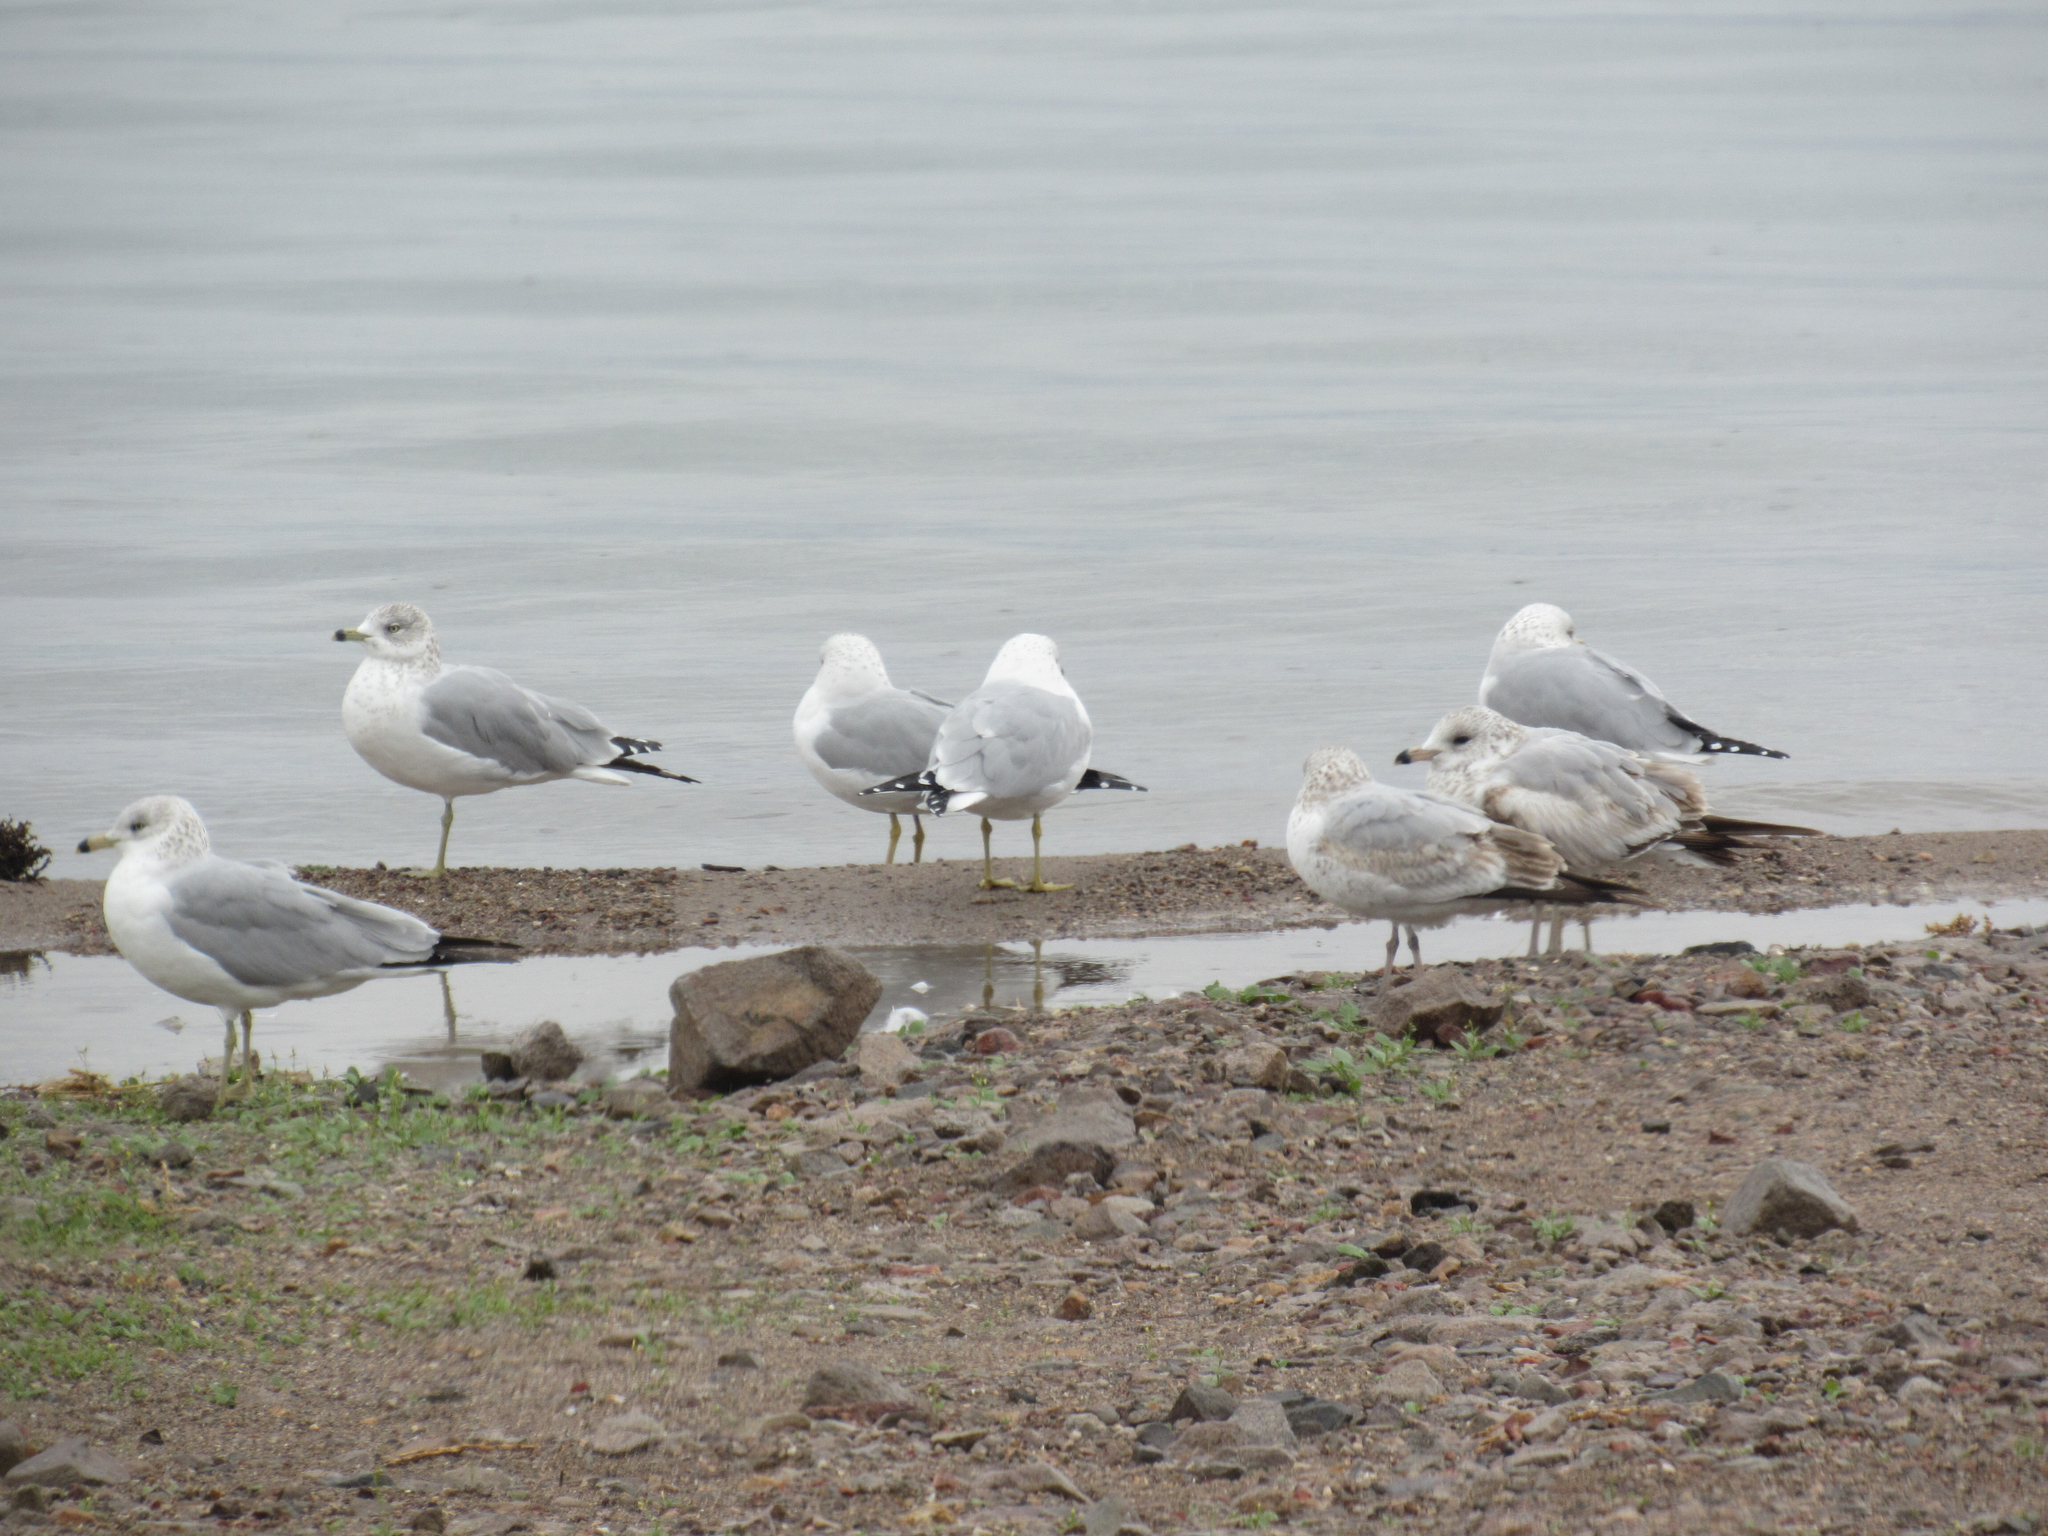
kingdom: Animalia
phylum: Chordata
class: Aves
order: Charadriiformes
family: Laridae
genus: Larus
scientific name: Larus delawarensis
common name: Ring-billed gull
